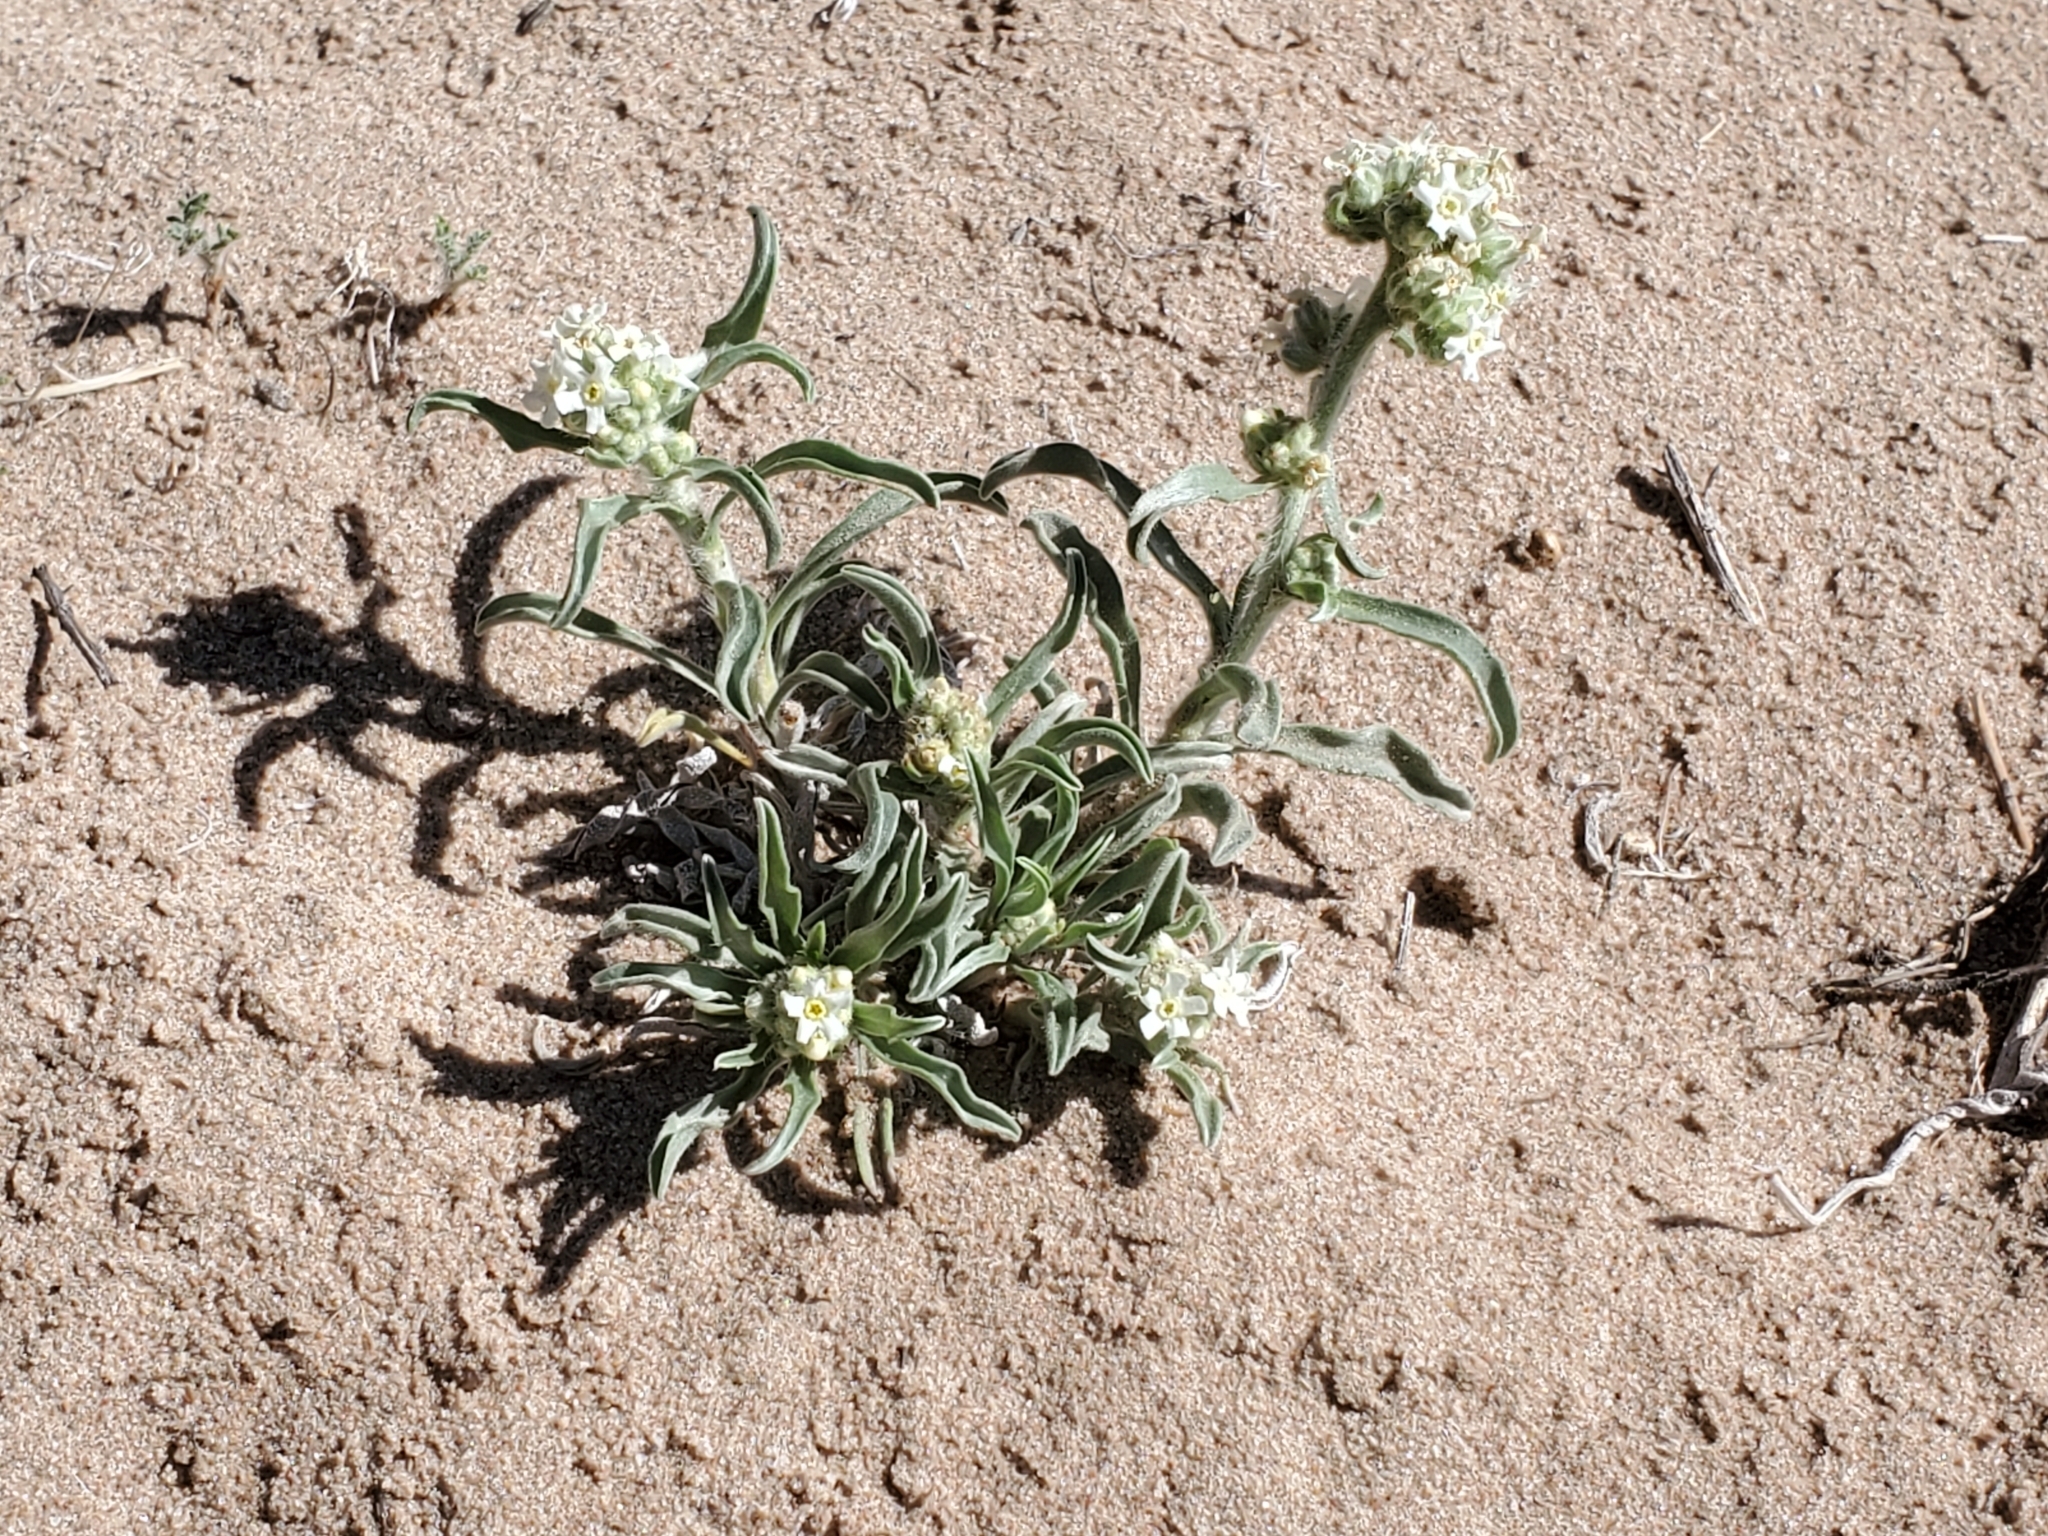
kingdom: Plantae
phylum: Tracheophyta
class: Magnoliopsida
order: Boraginales
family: Boraginaceae
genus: Oreocarya
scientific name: Oreocarya suffruticosa
